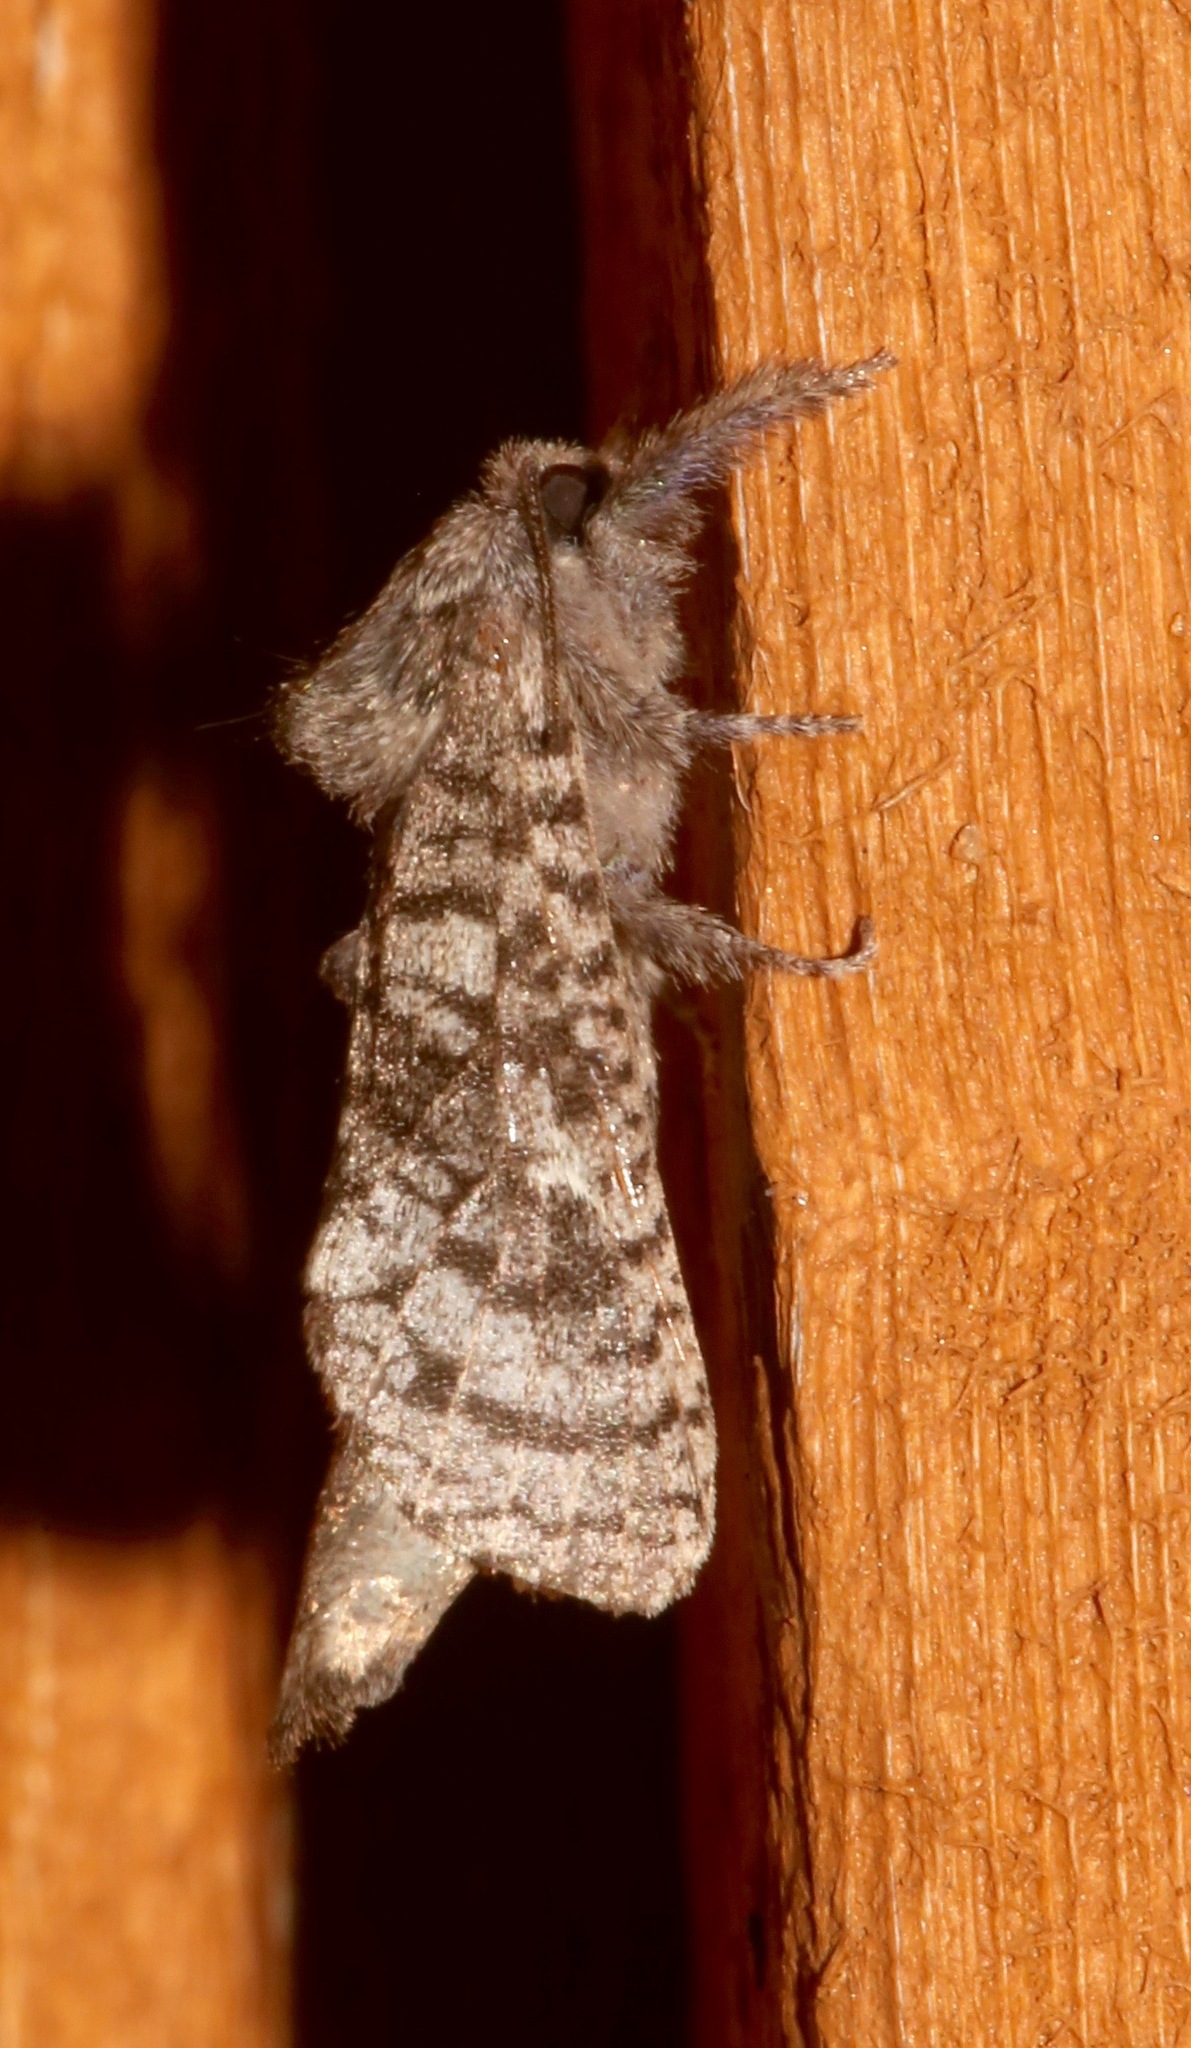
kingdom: Animalia
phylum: Arthropoda
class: Insecta
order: Lepidoptera
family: Cossidae
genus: Givira
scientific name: Givira francesca
